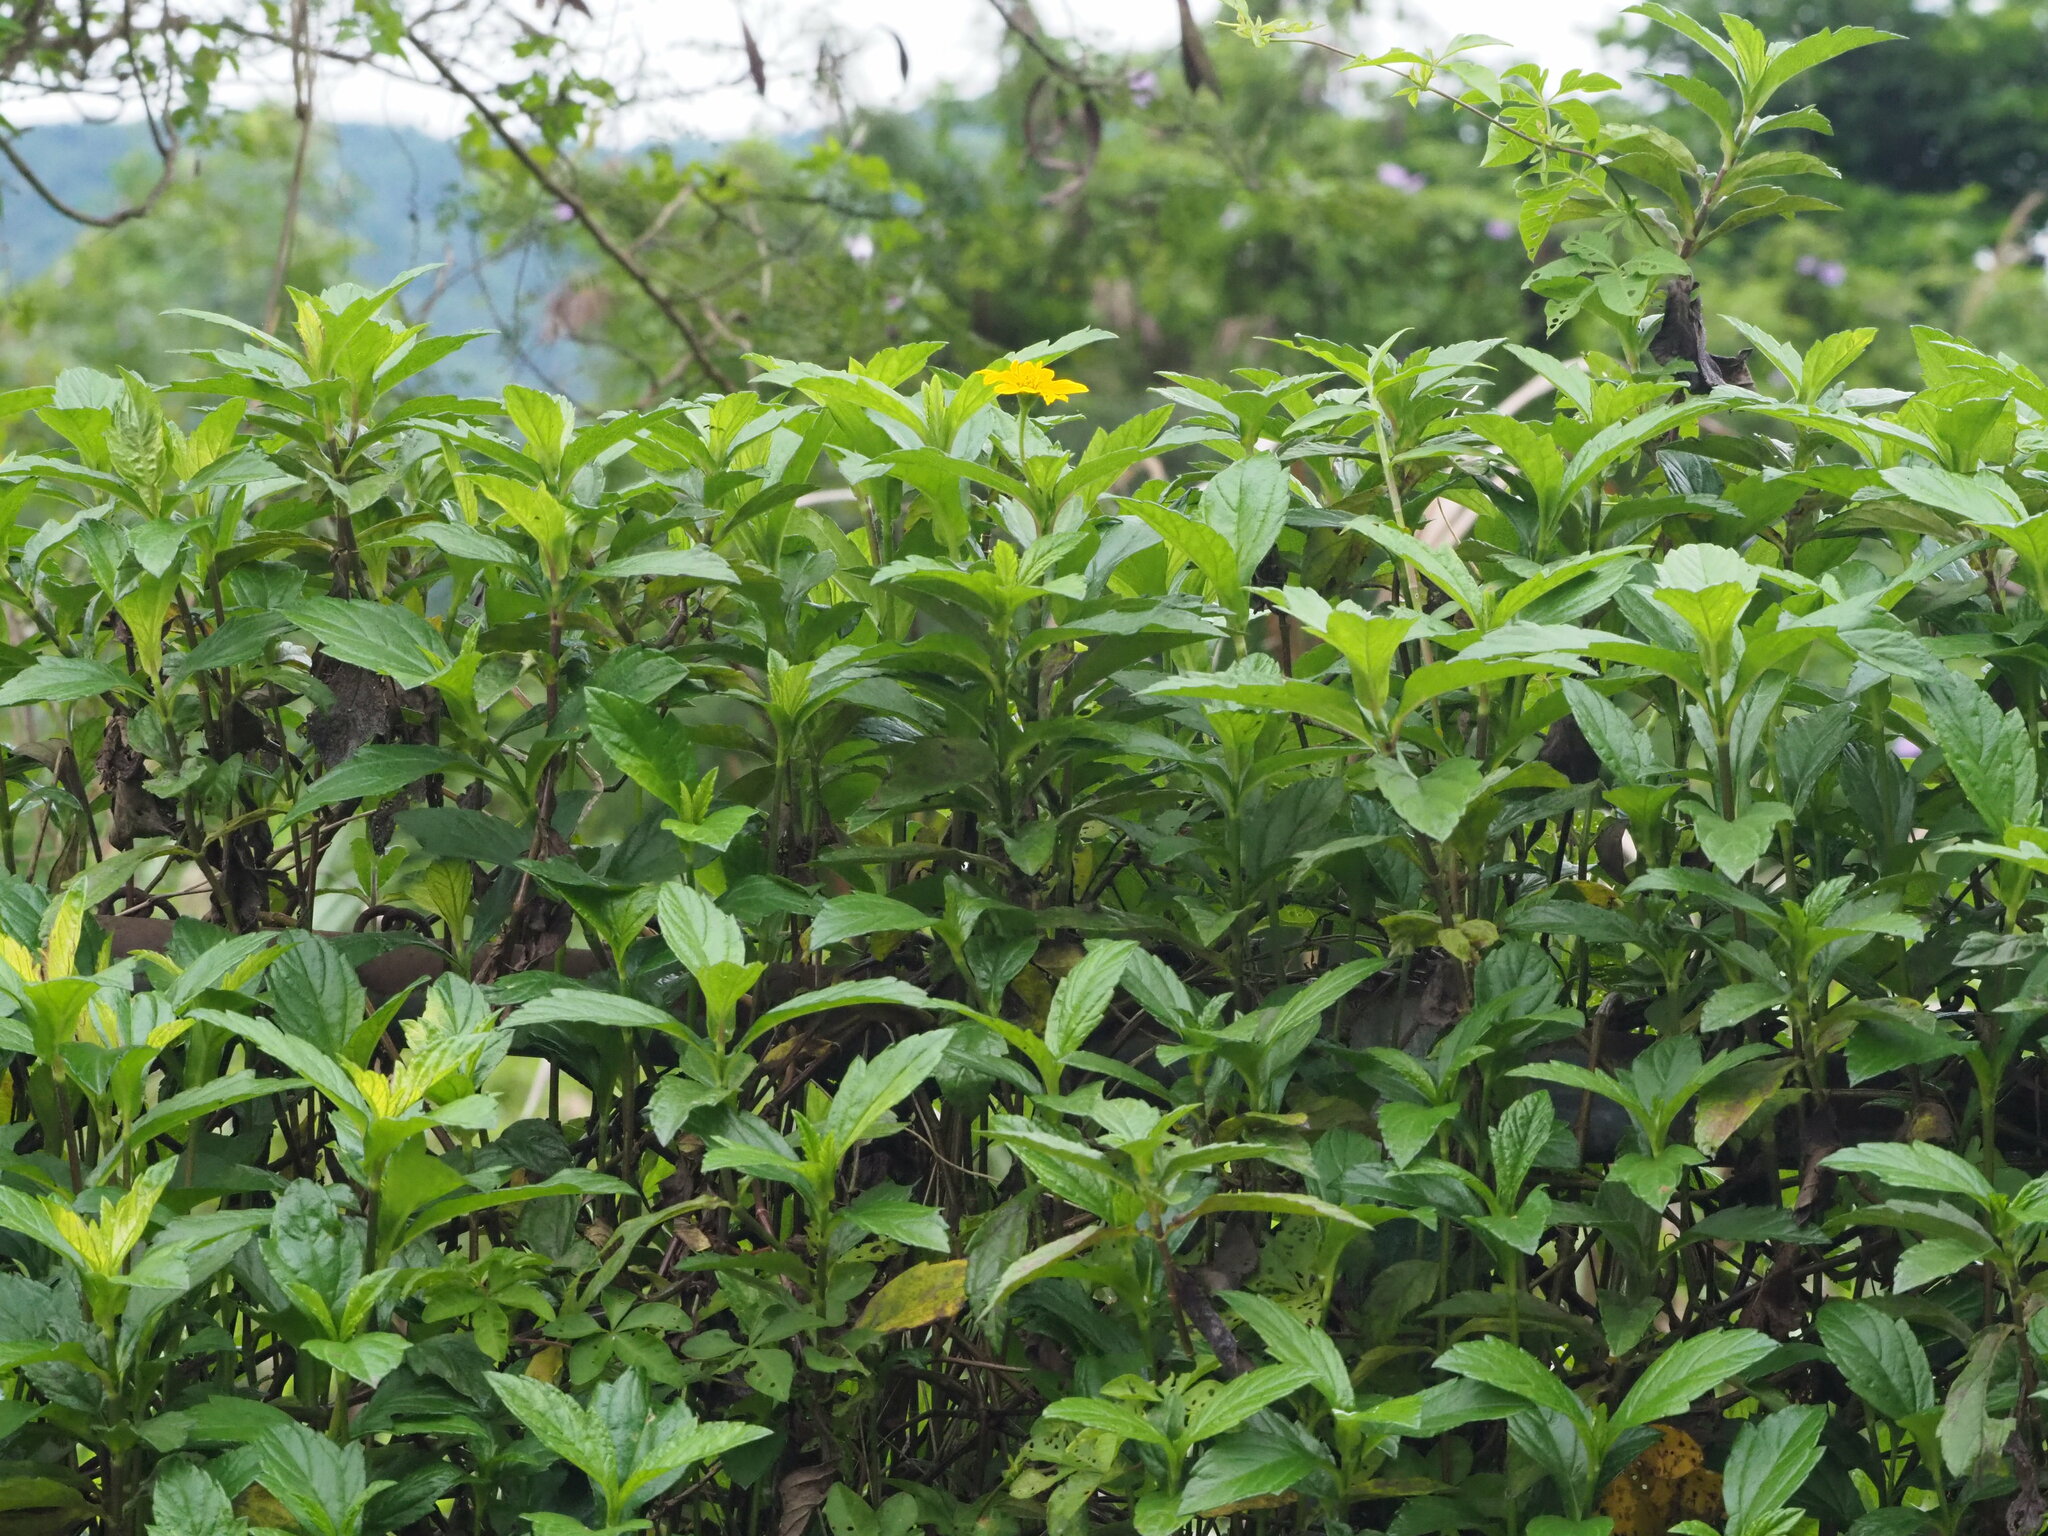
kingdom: Plantae
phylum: Tracheophyta
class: Magnoliopsida
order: Asterales
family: Asteraceae
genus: Sphagneticola
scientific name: Sphagneticola trilobata
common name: Bay biscayne creeping-oxeye
